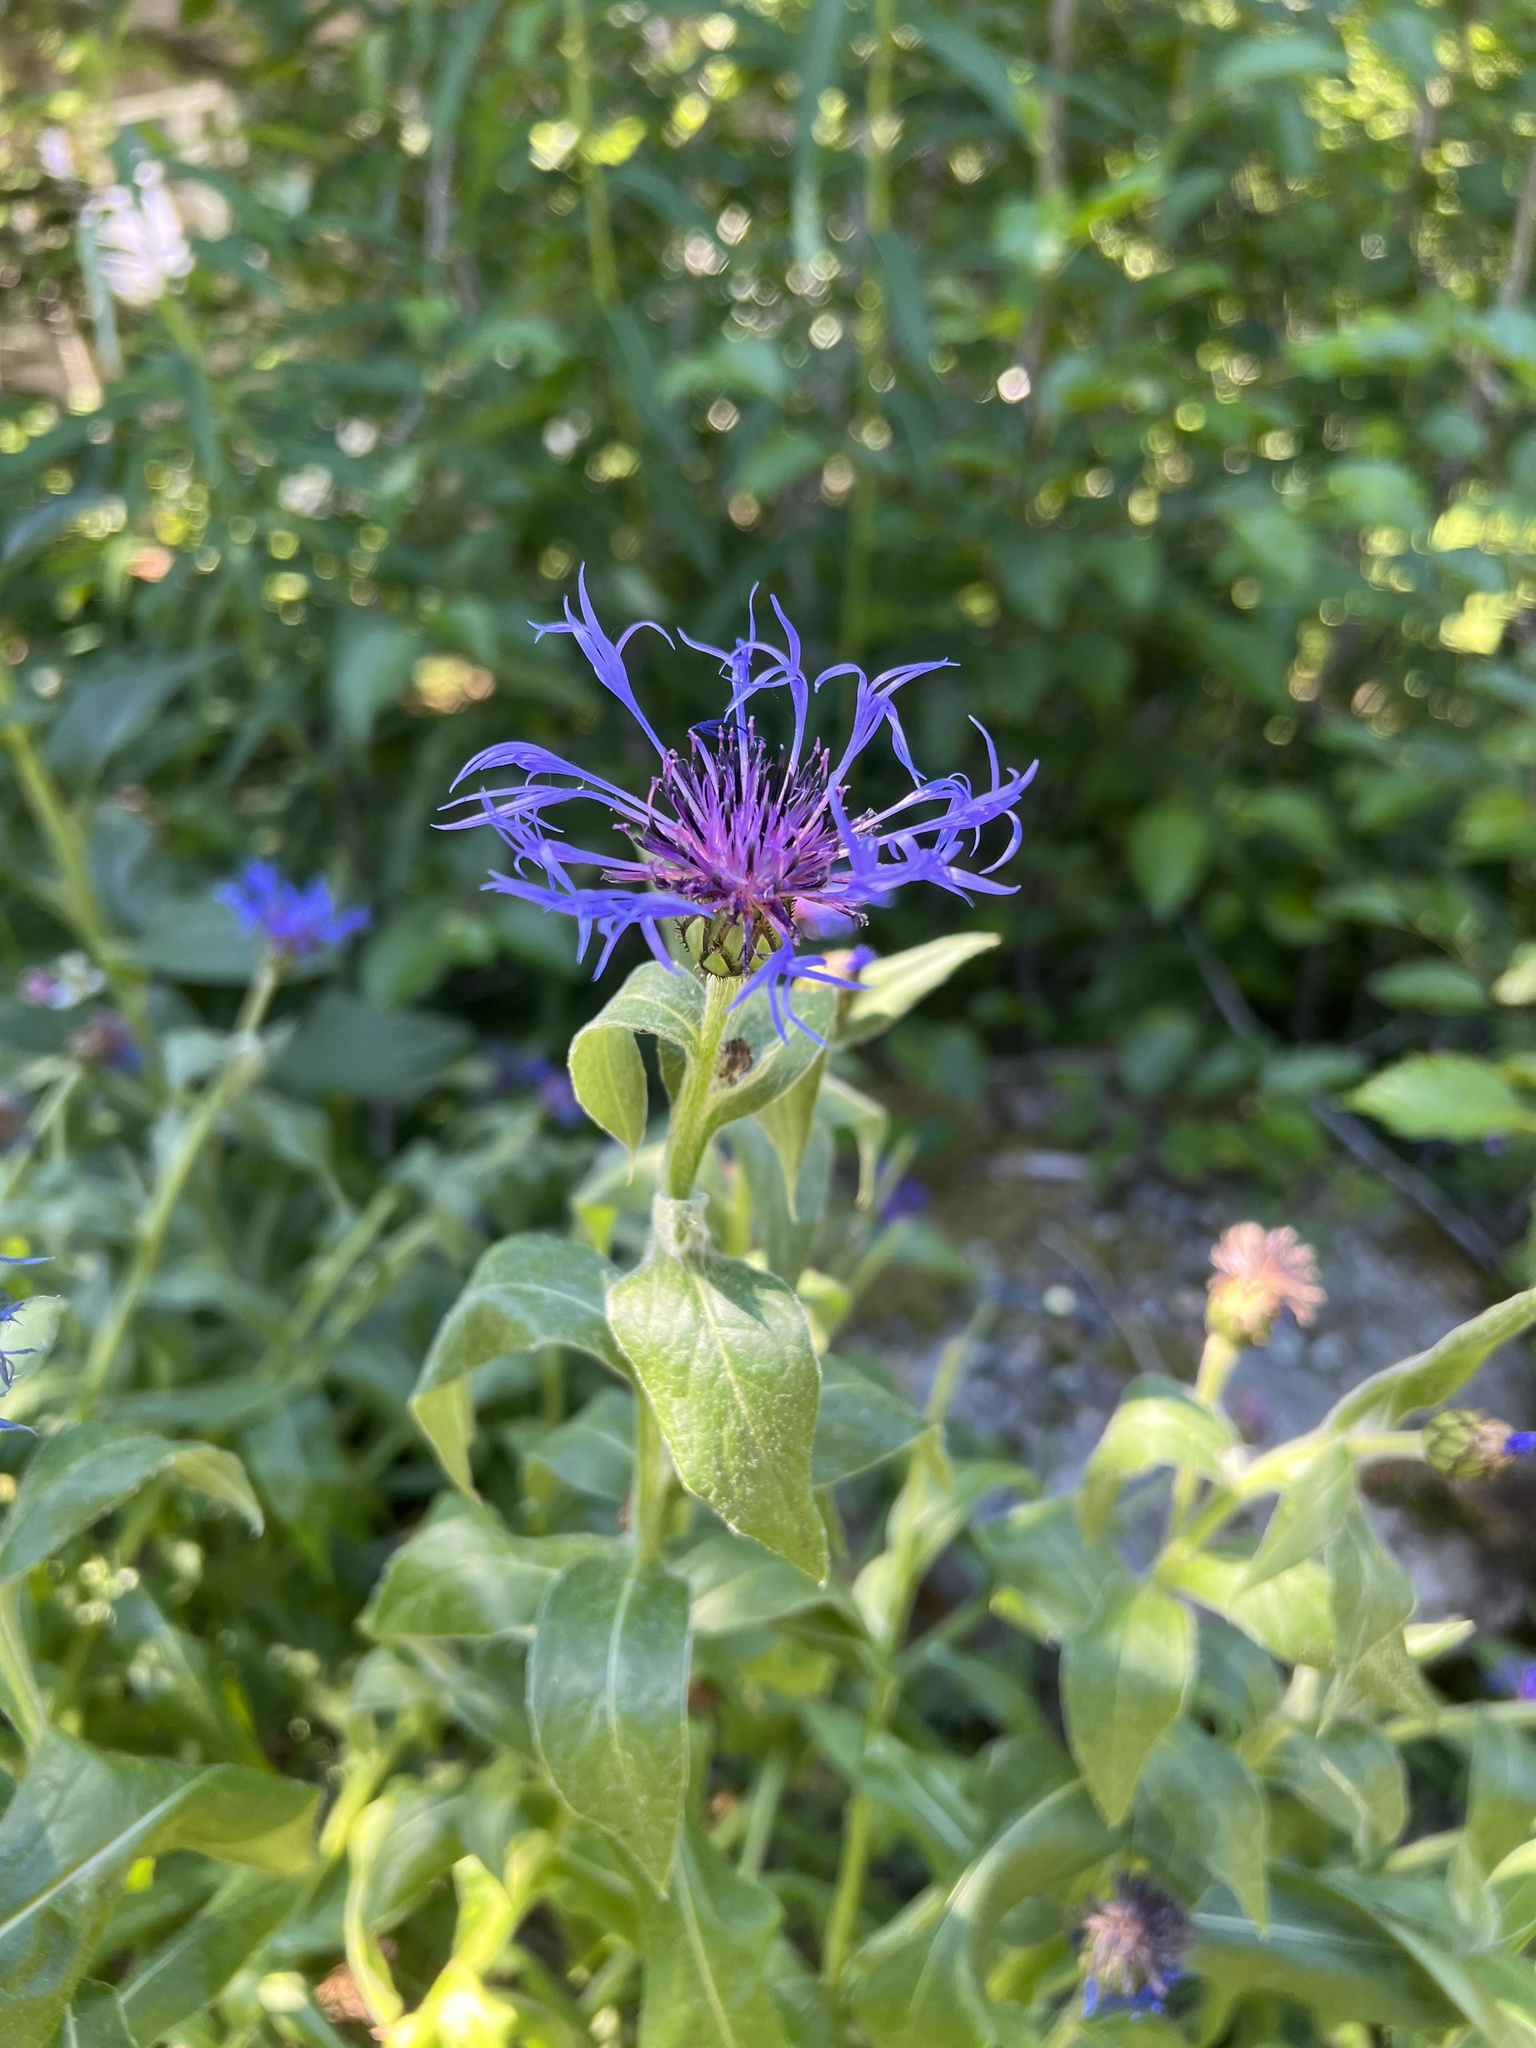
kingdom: Plantae
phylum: Tracheophyta
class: Magnoliopsida
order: Asterales
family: Asteraceae
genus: Centaurea
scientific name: Centaurea montana
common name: Perennial cornflower
